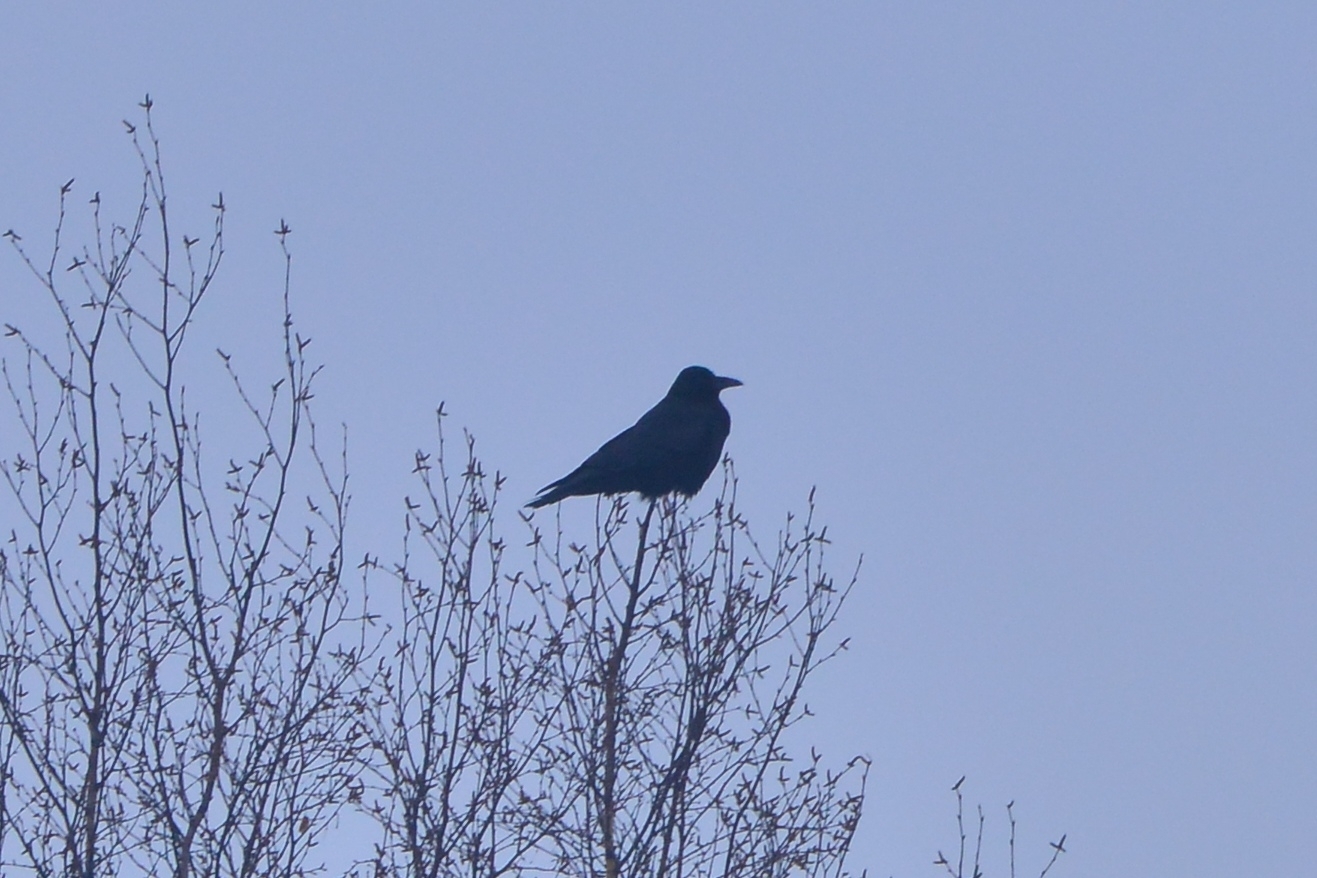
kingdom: Animalia
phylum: Chordata
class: Aves
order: Passeriformes
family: Corvidae
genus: Corvus
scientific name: Corvus corone
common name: Carrion crow
